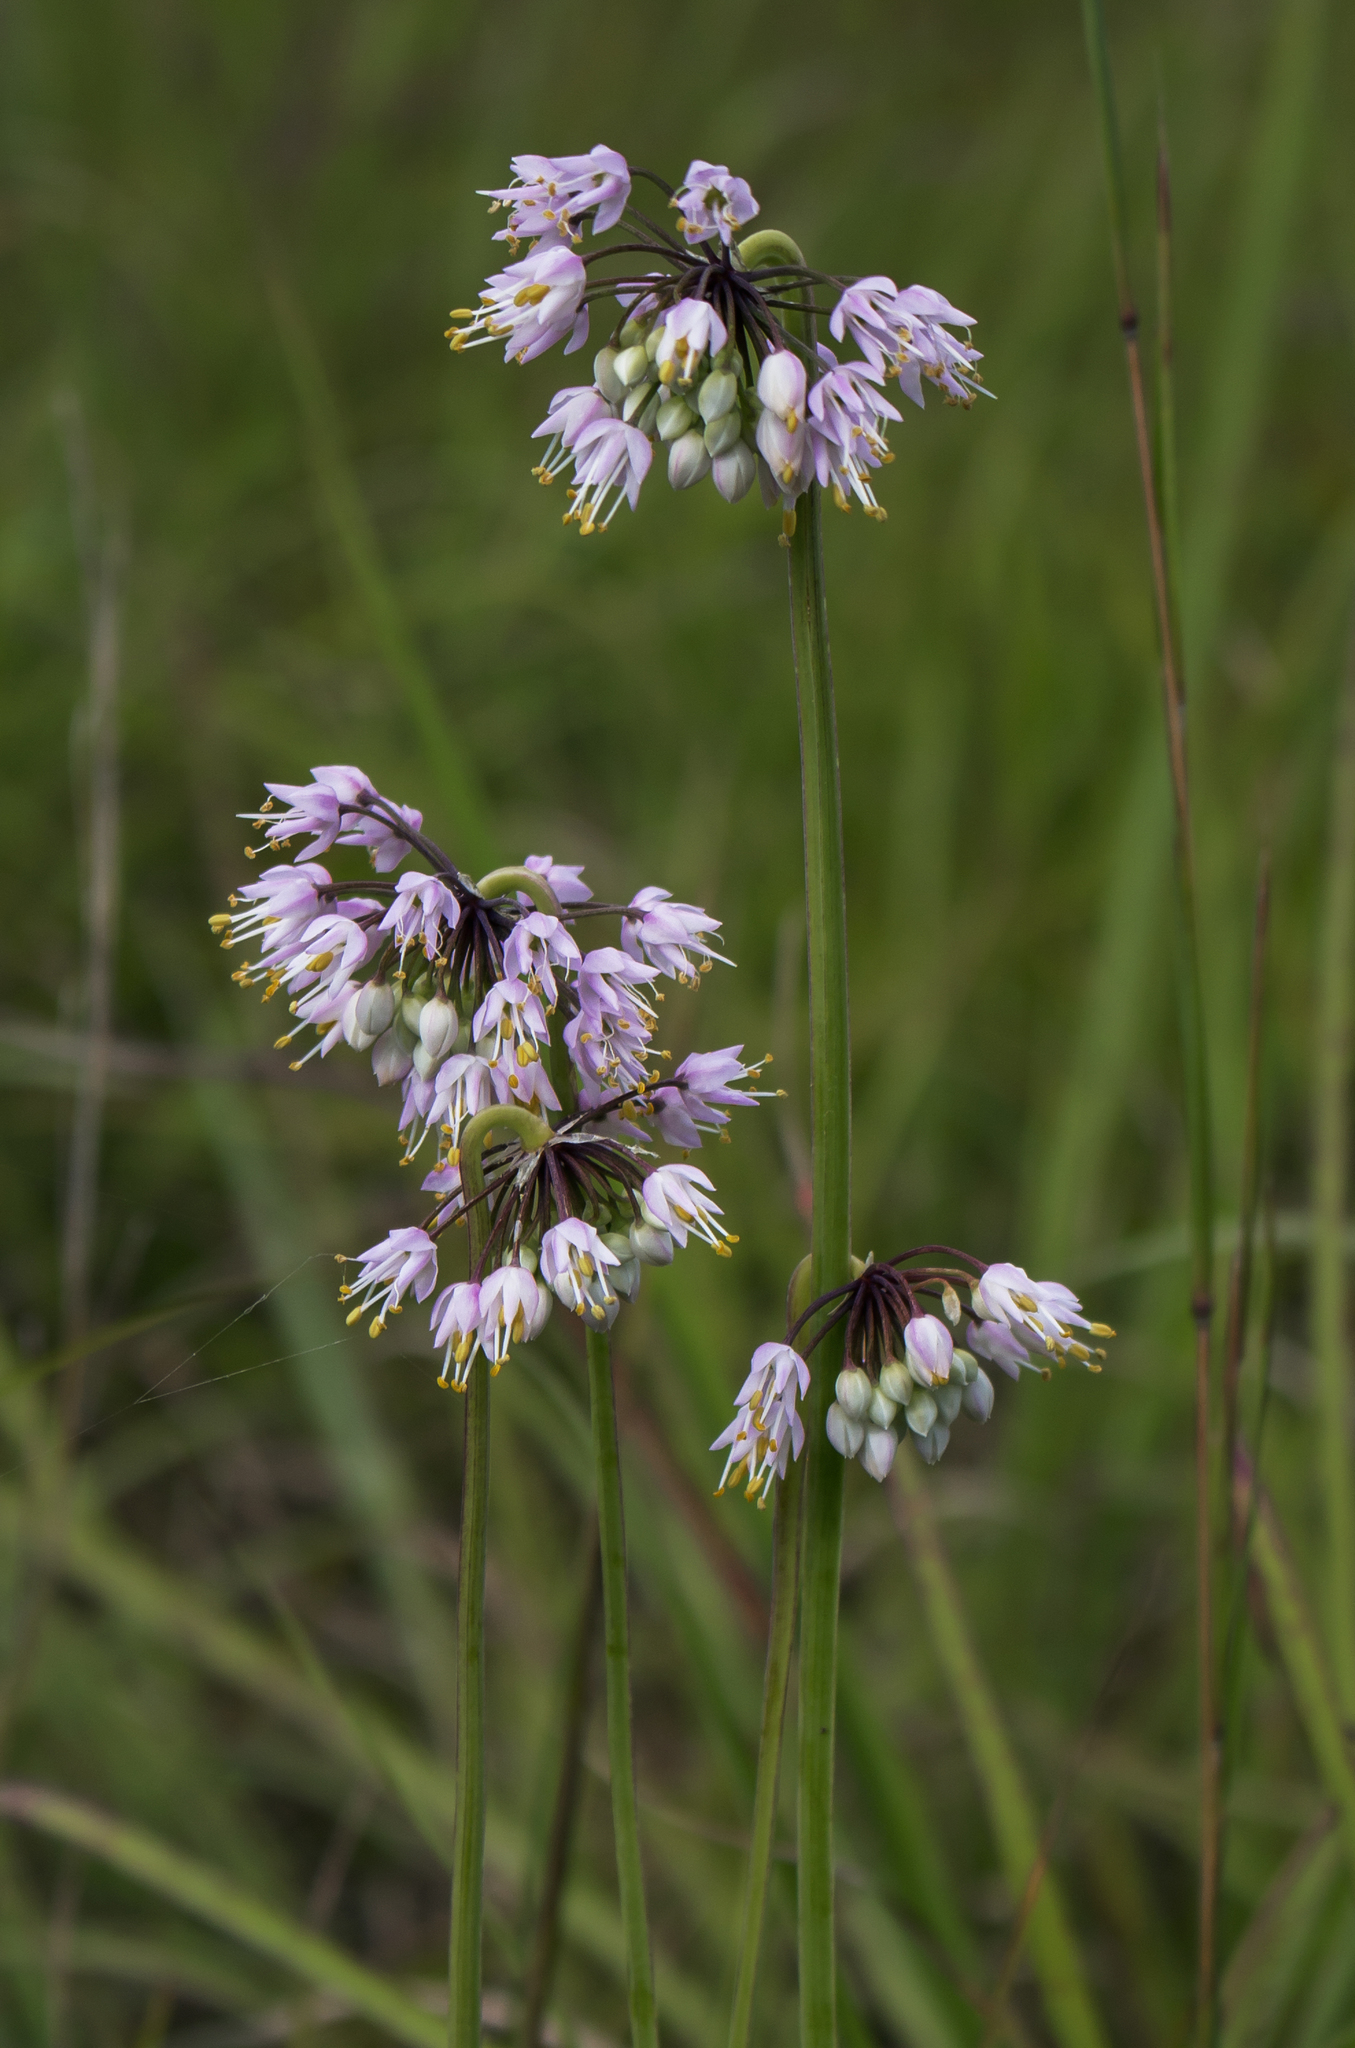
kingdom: Plantae
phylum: Tracheophyta
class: Liliopsida
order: Asparagales
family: Amaryllidaceae
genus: Allium
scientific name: Allium cernuum
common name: Nodding onion
